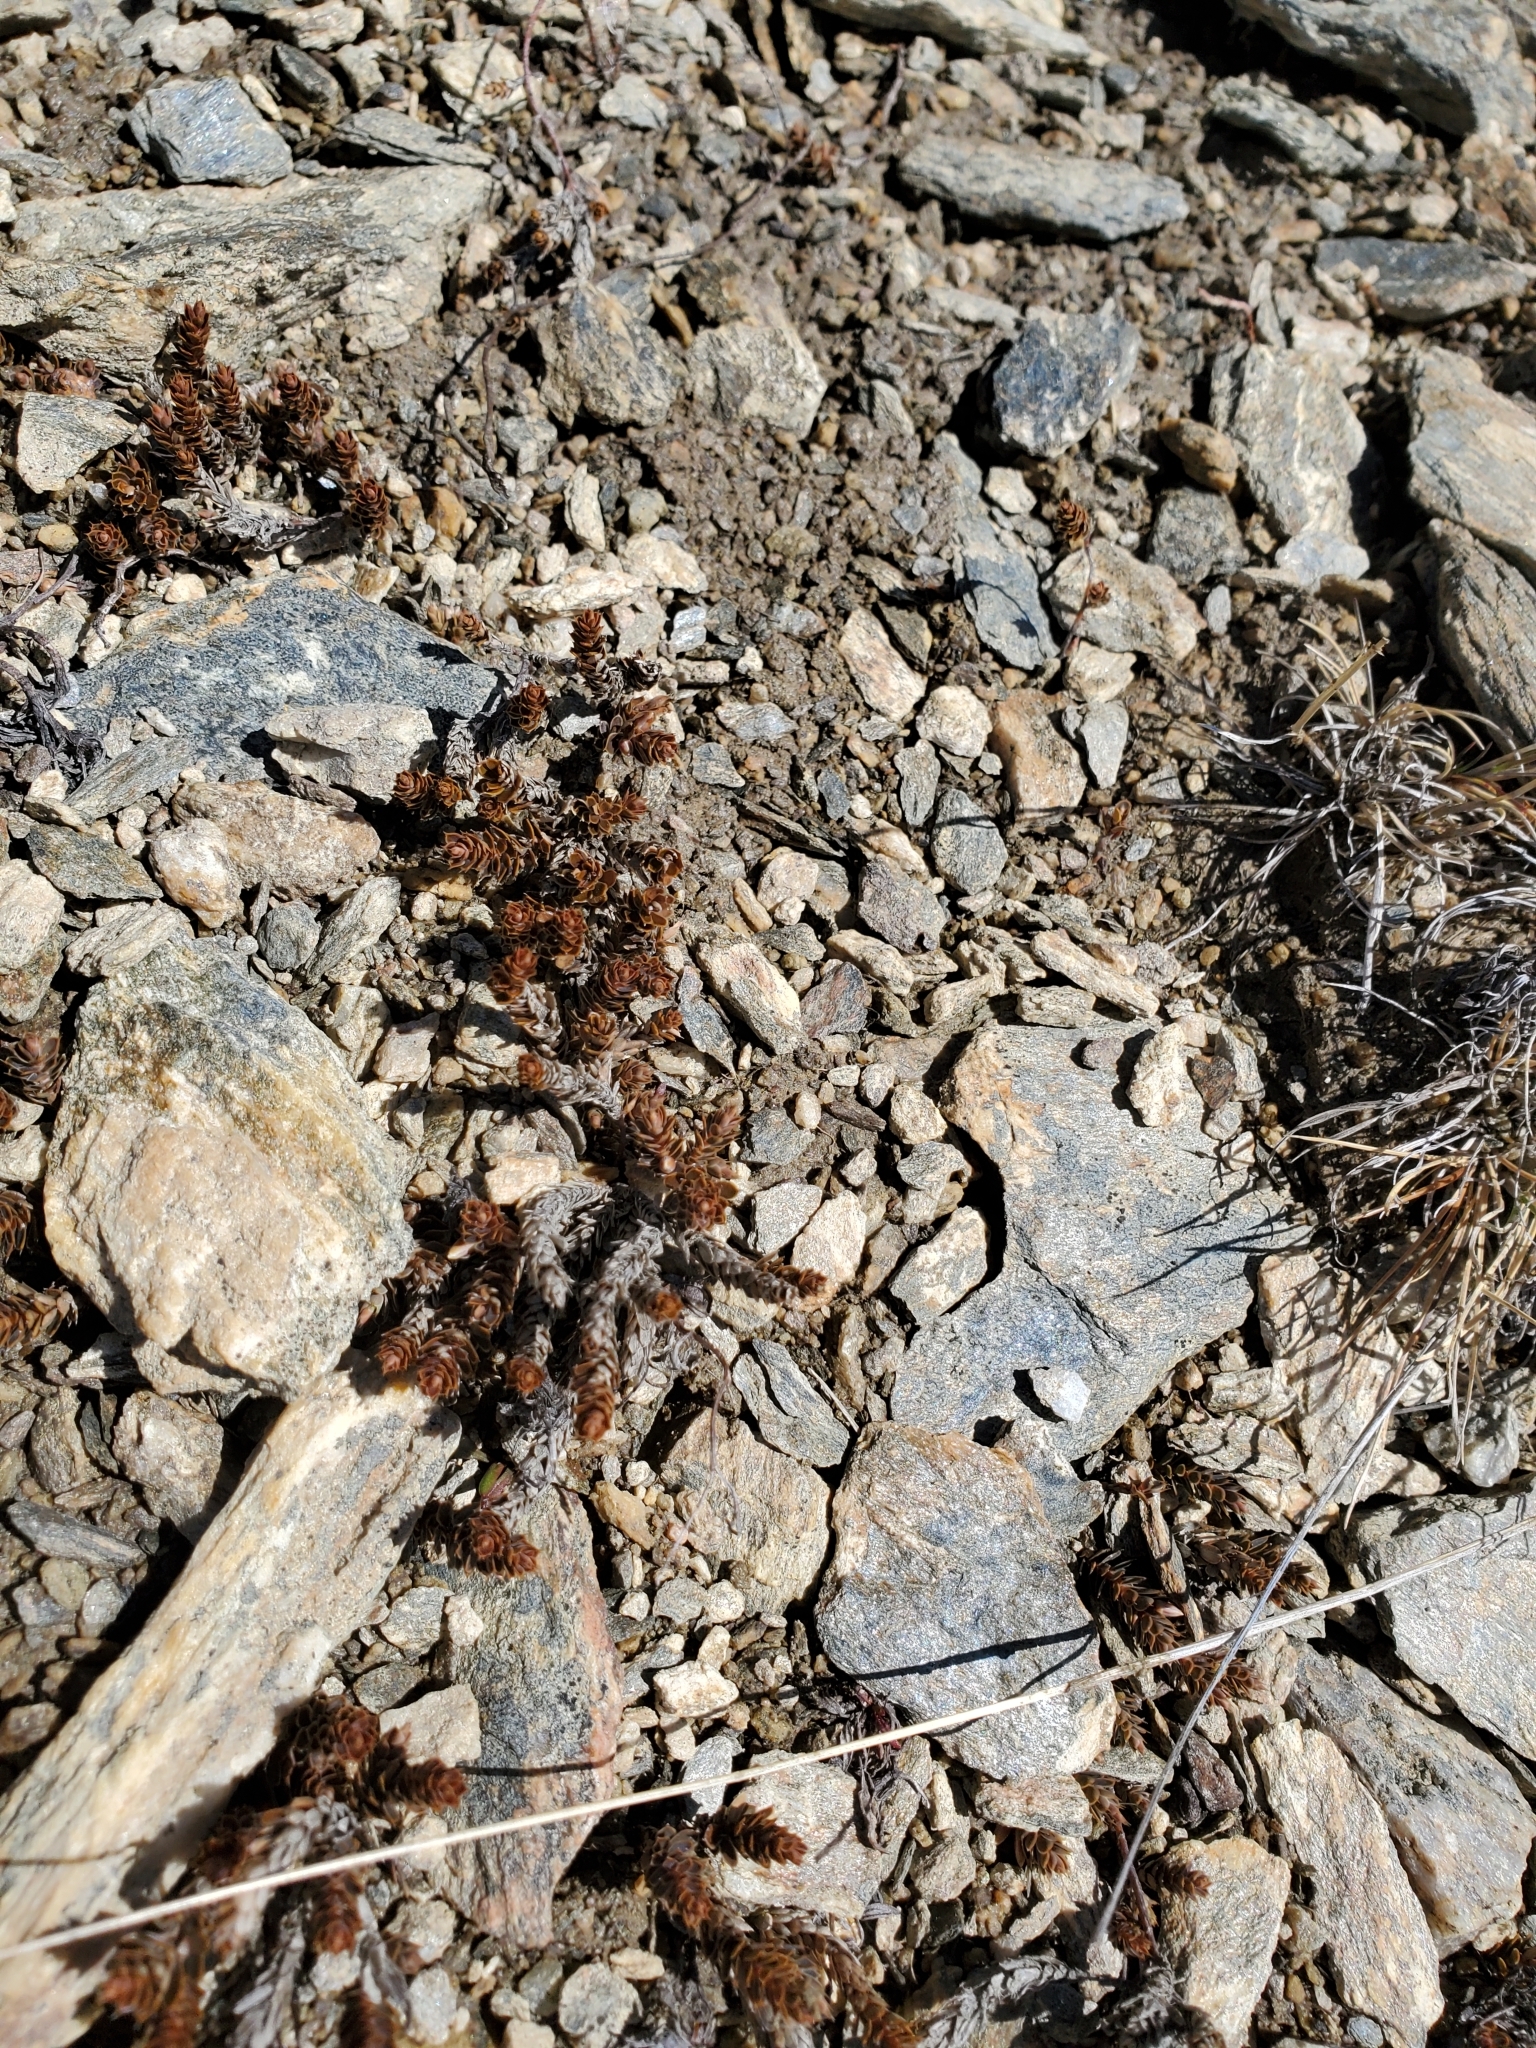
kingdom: Plantae
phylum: Tracheophyta
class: Magnoliopsida
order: Ericales
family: Ericaceae
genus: Styphelia
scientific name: Styphelia nesophila
